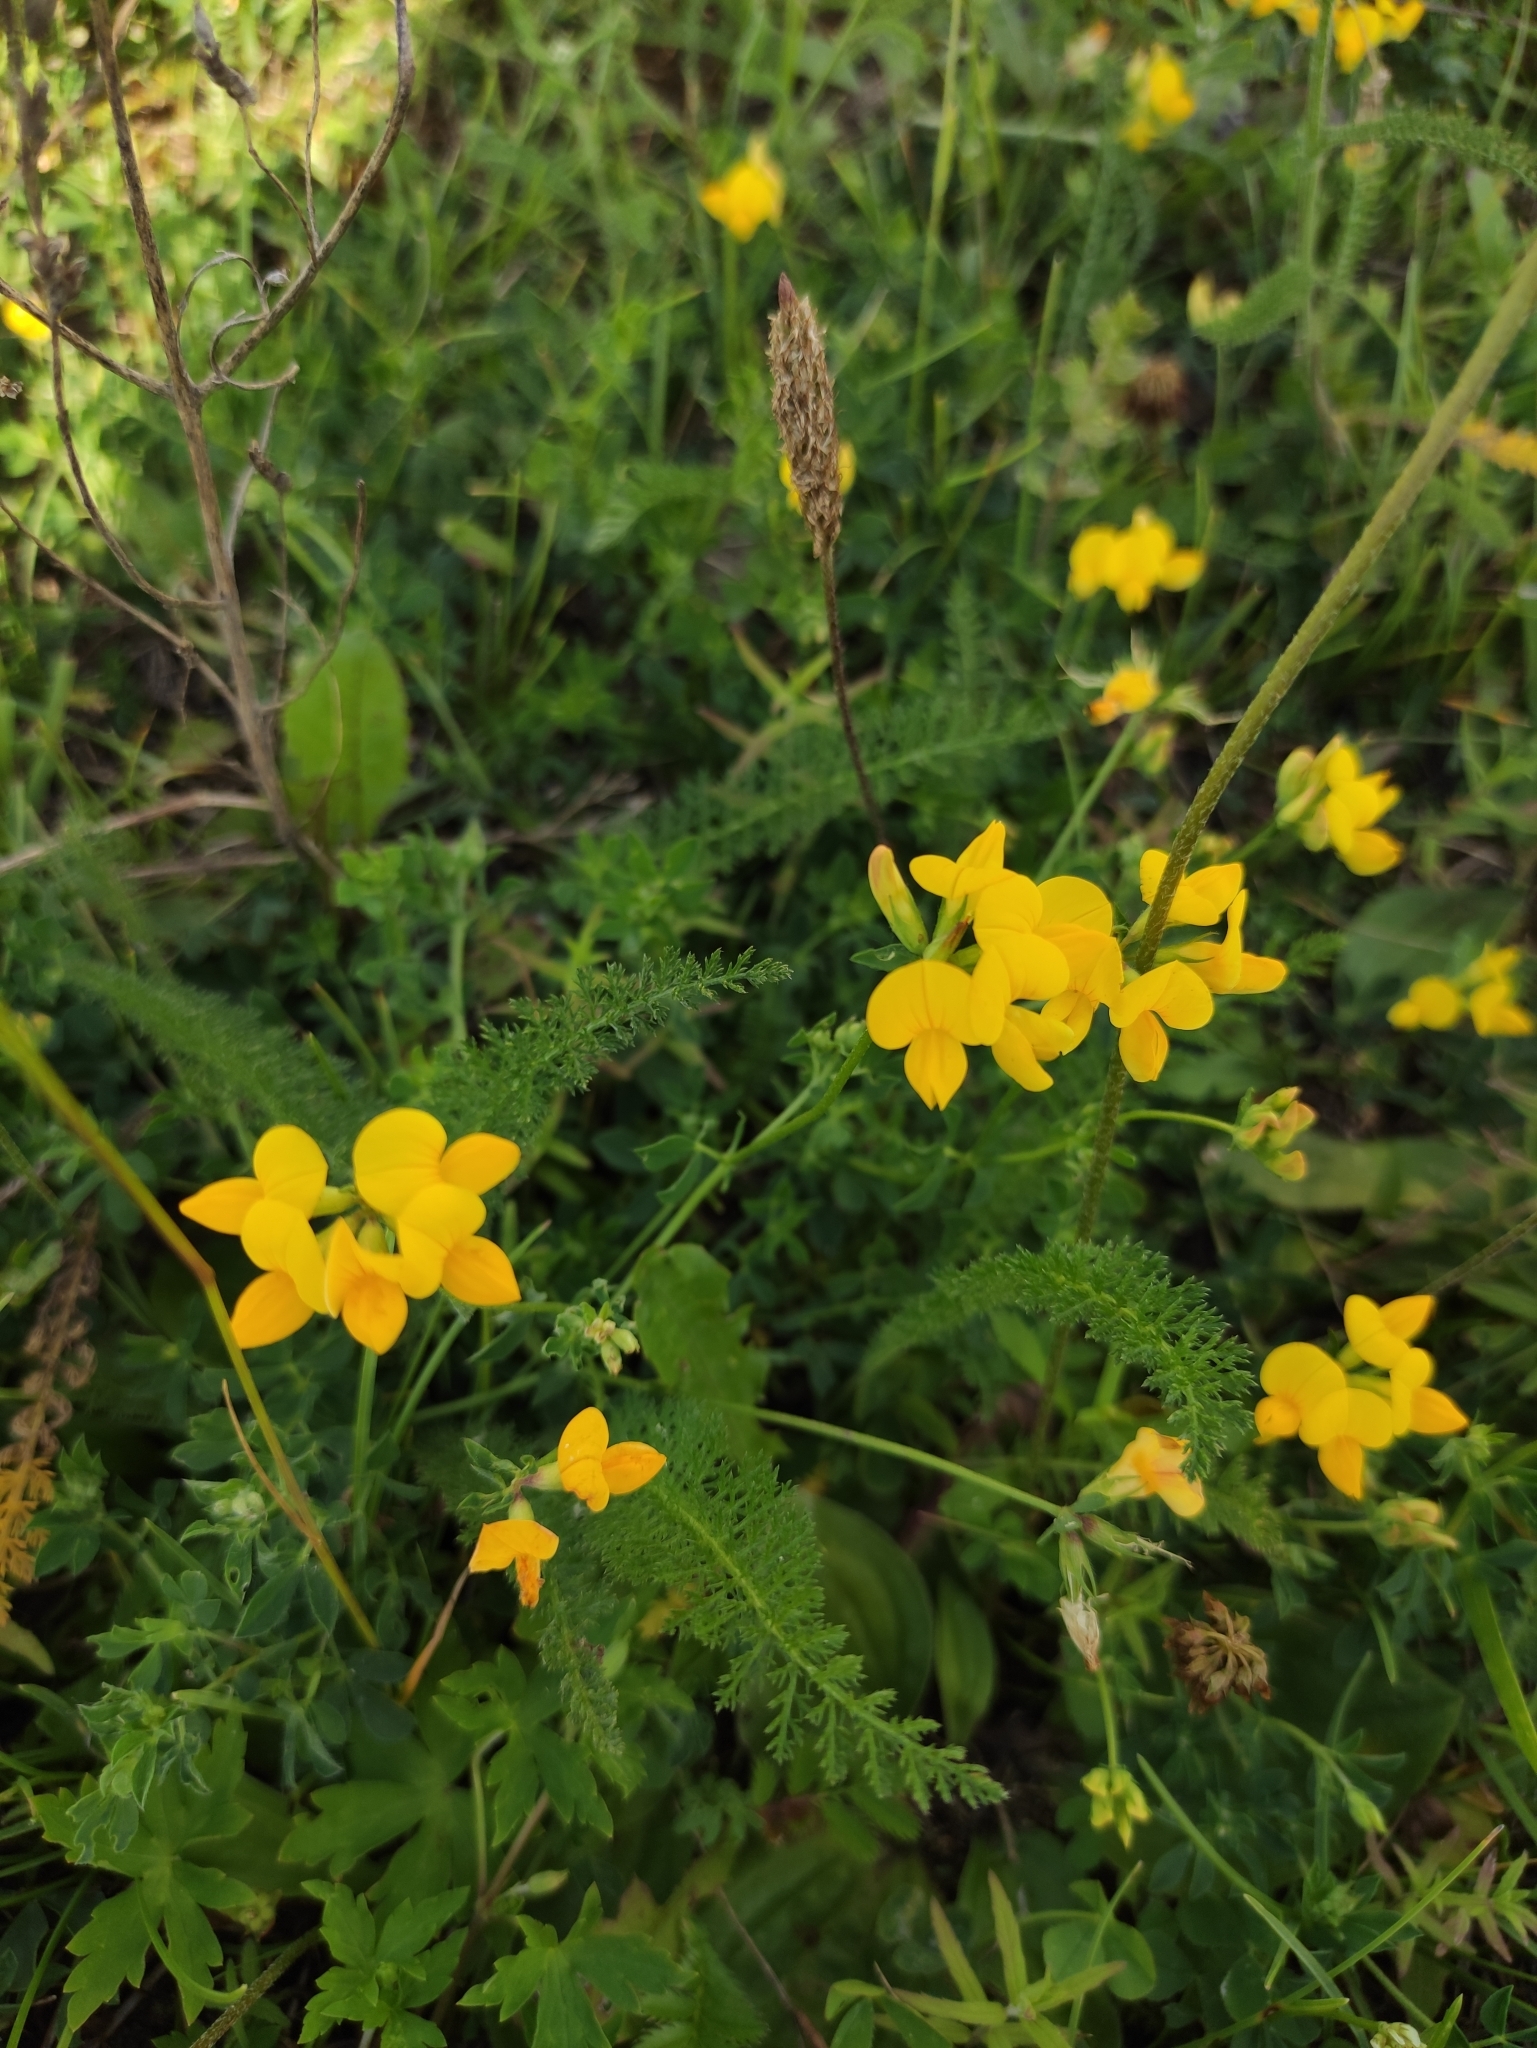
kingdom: Plantae
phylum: Tracheophyta
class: Magnoliopsida
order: Fabales
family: Fabaceae
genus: Lotus
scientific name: Lotus corniculatus
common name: Common bird's-foot-trefoil
